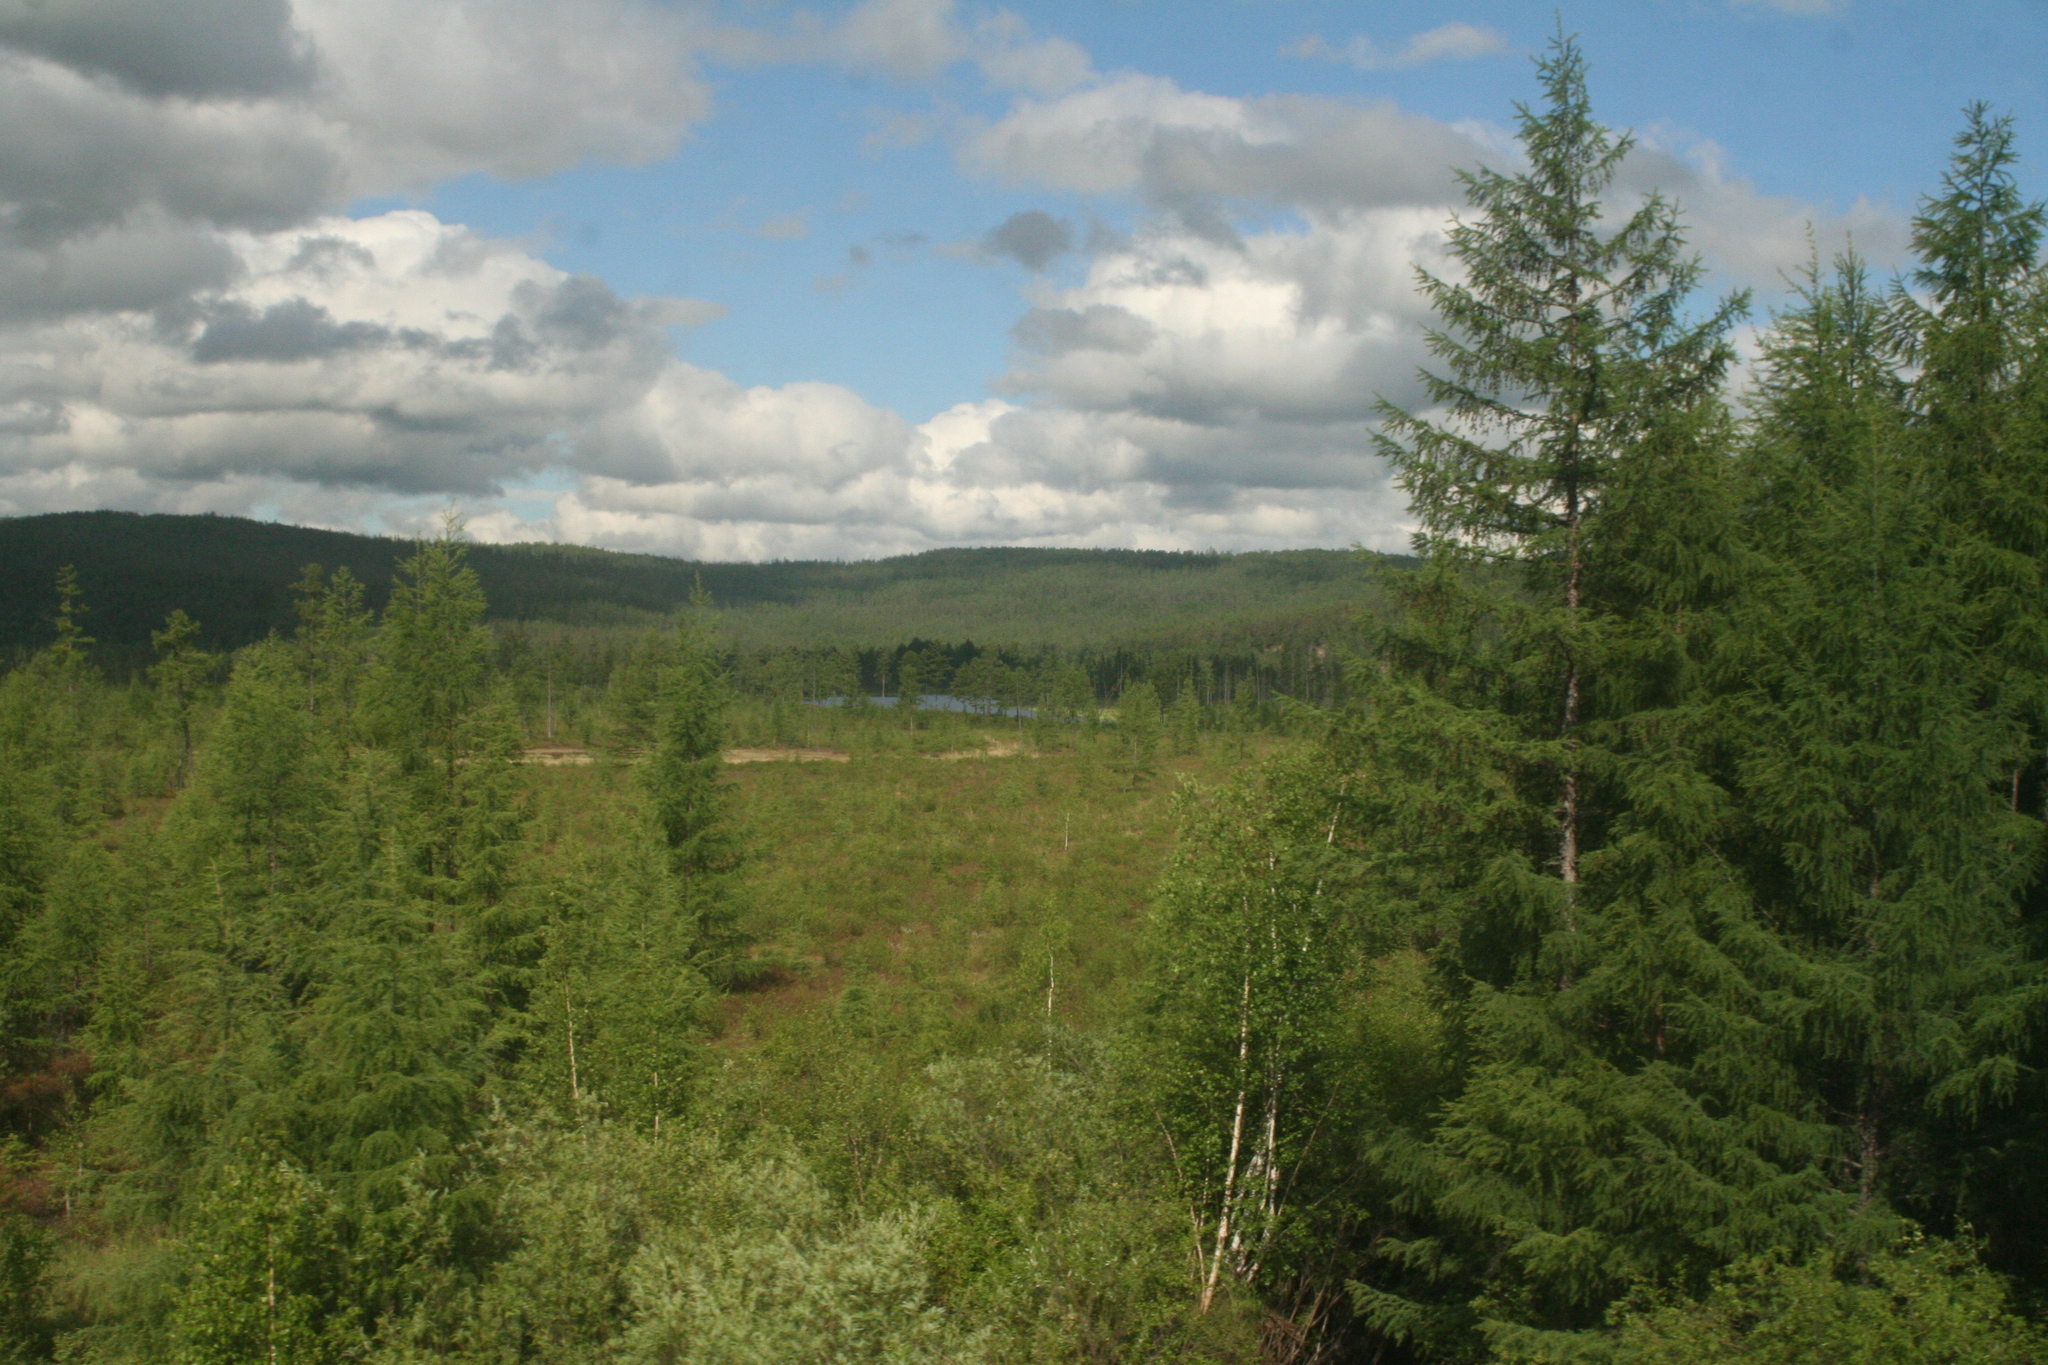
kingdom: Plantae
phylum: Tracheophyta
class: Pinopsida
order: Pinales
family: Pinaceae
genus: Larix
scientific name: Larix gmelinii
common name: Dahurian larch
